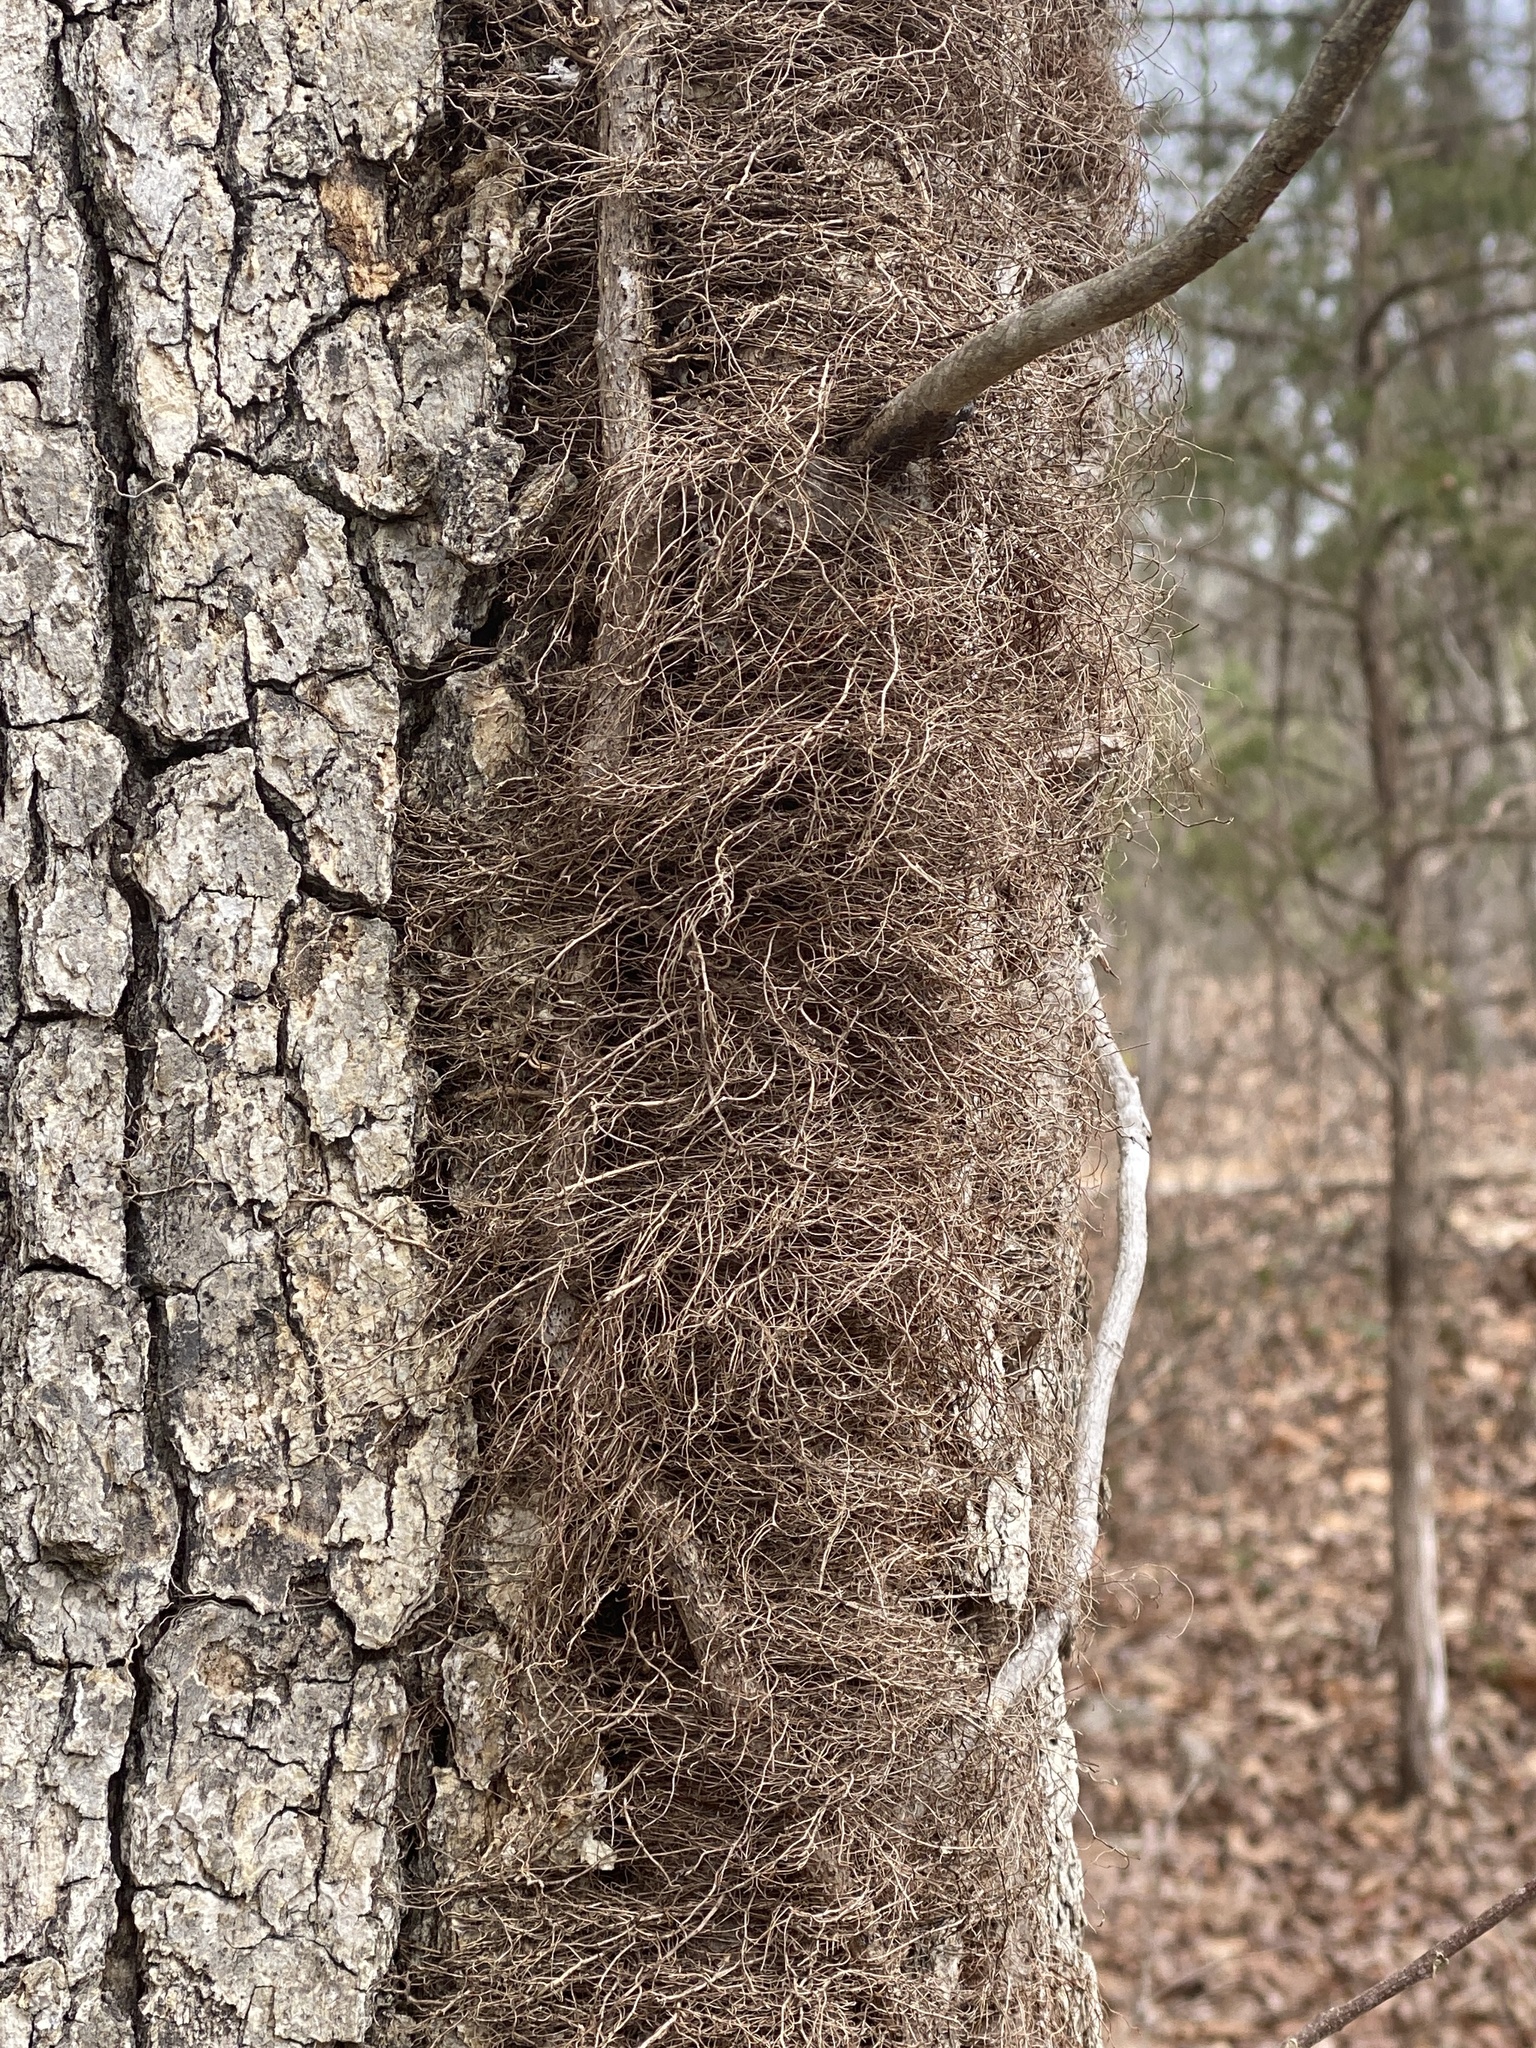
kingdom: Plantae
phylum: Tracheophyta
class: Magnoliopsida
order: Sapindales
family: Anacardiaceae
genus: Toxicodendron
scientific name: Toxicodendron radicans
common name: Poison ivy
